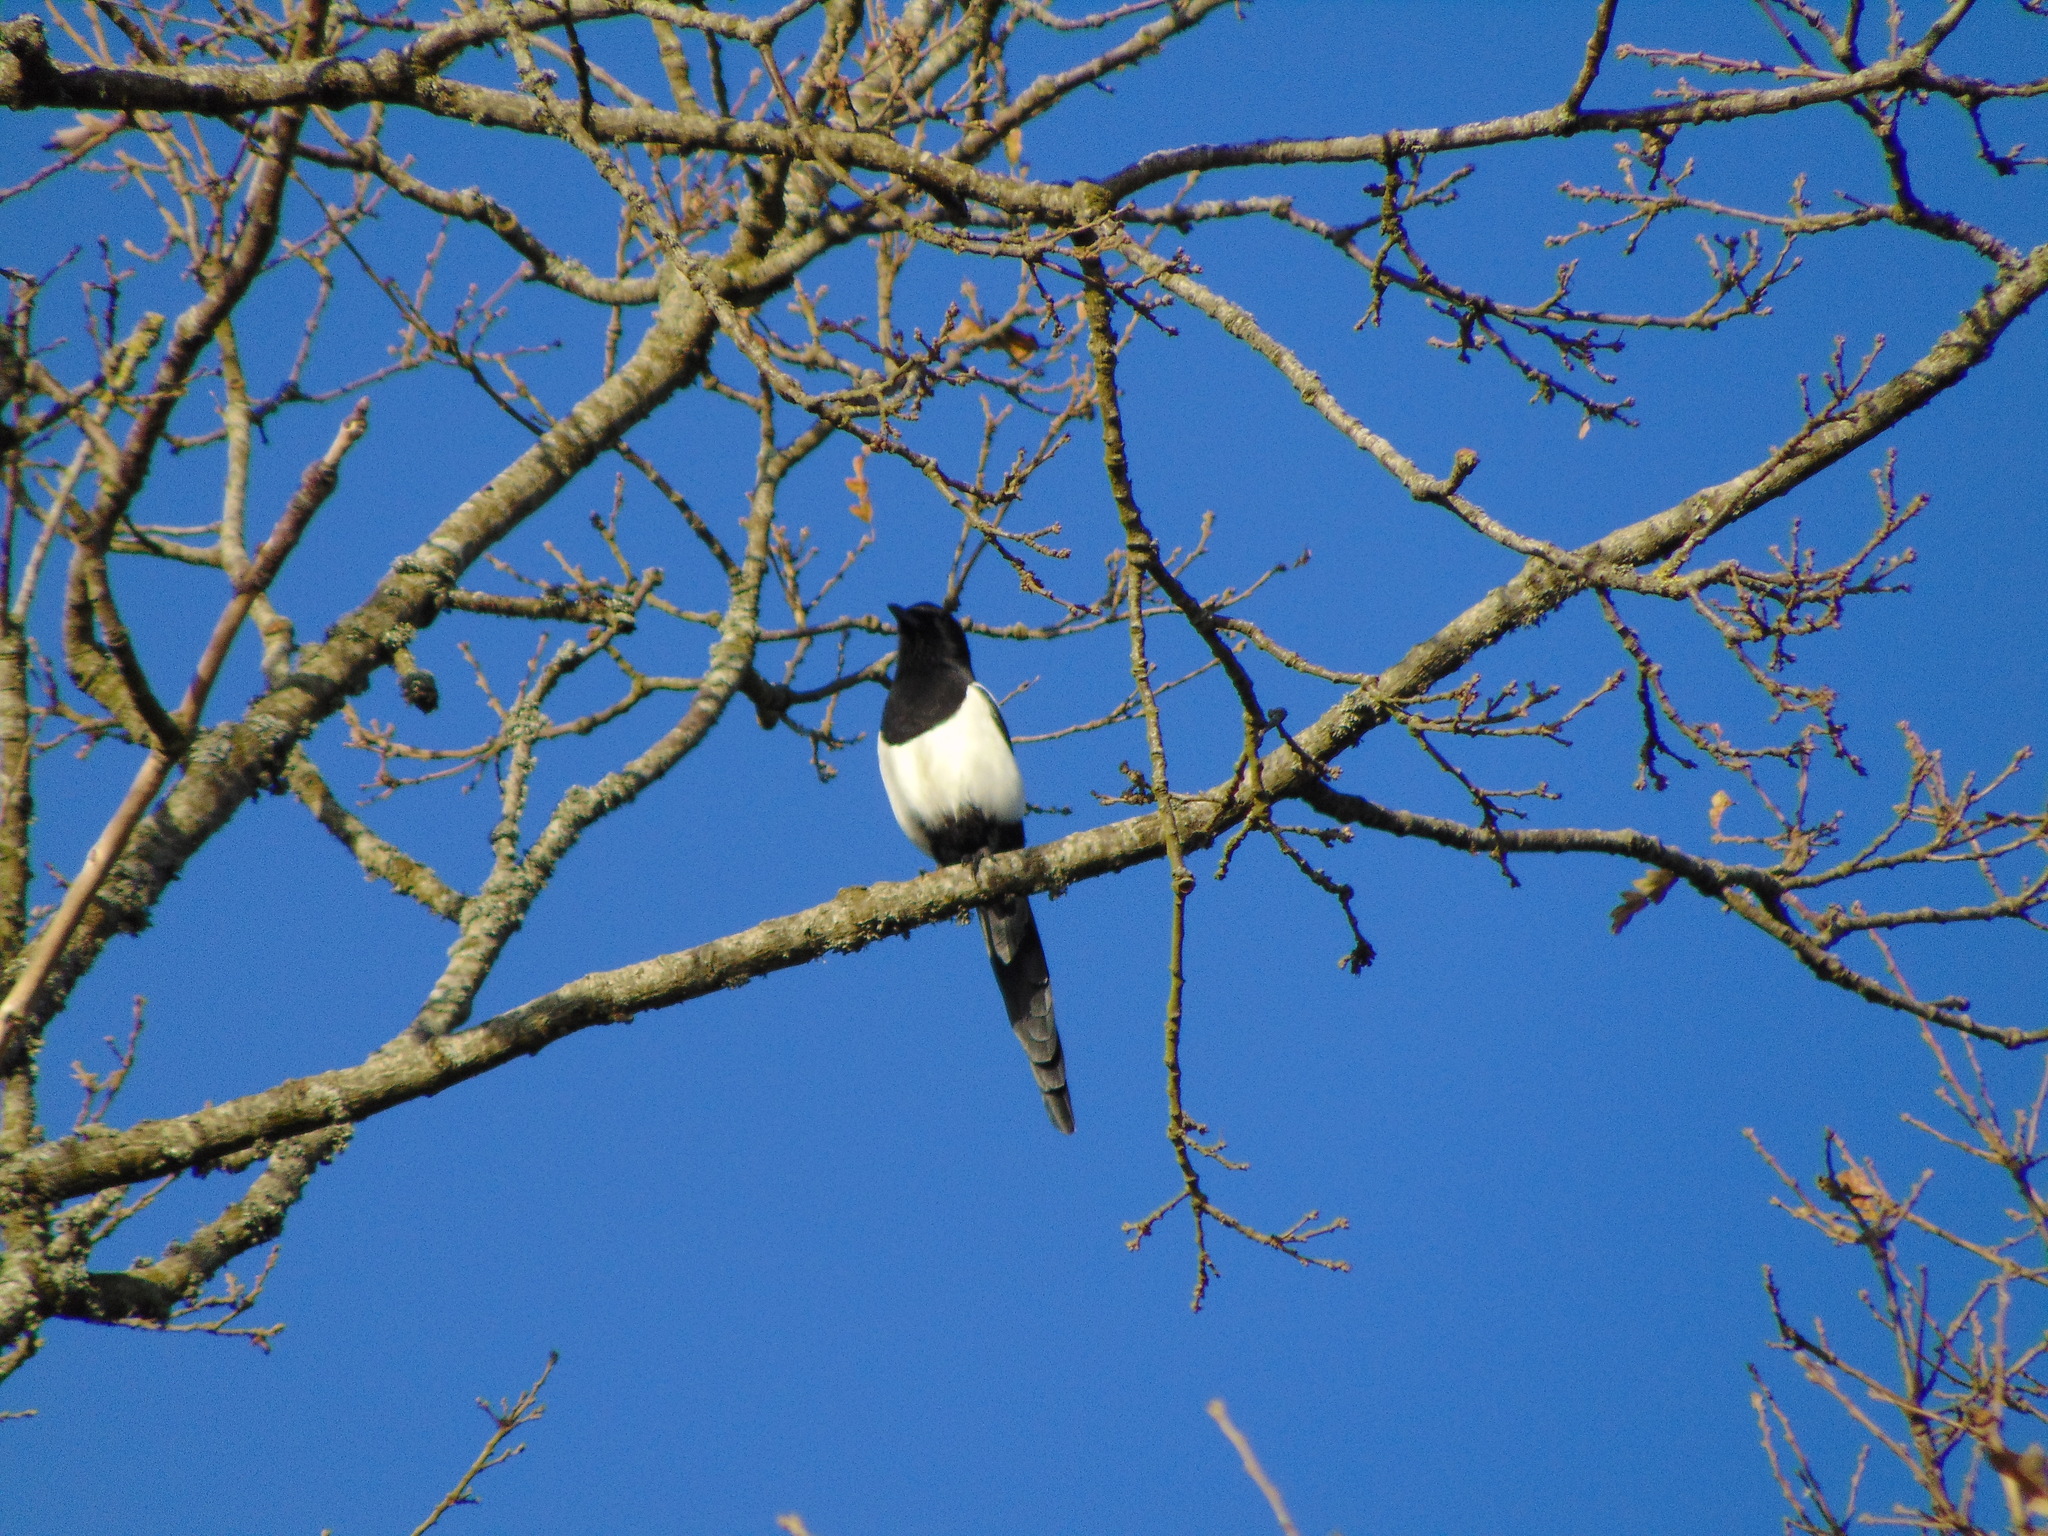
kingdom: Animalia
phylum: Chordata
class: Aves
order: Passeriformes
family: Corvidae
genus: Pica
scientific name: Pica pica
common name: Eurasian magpie
